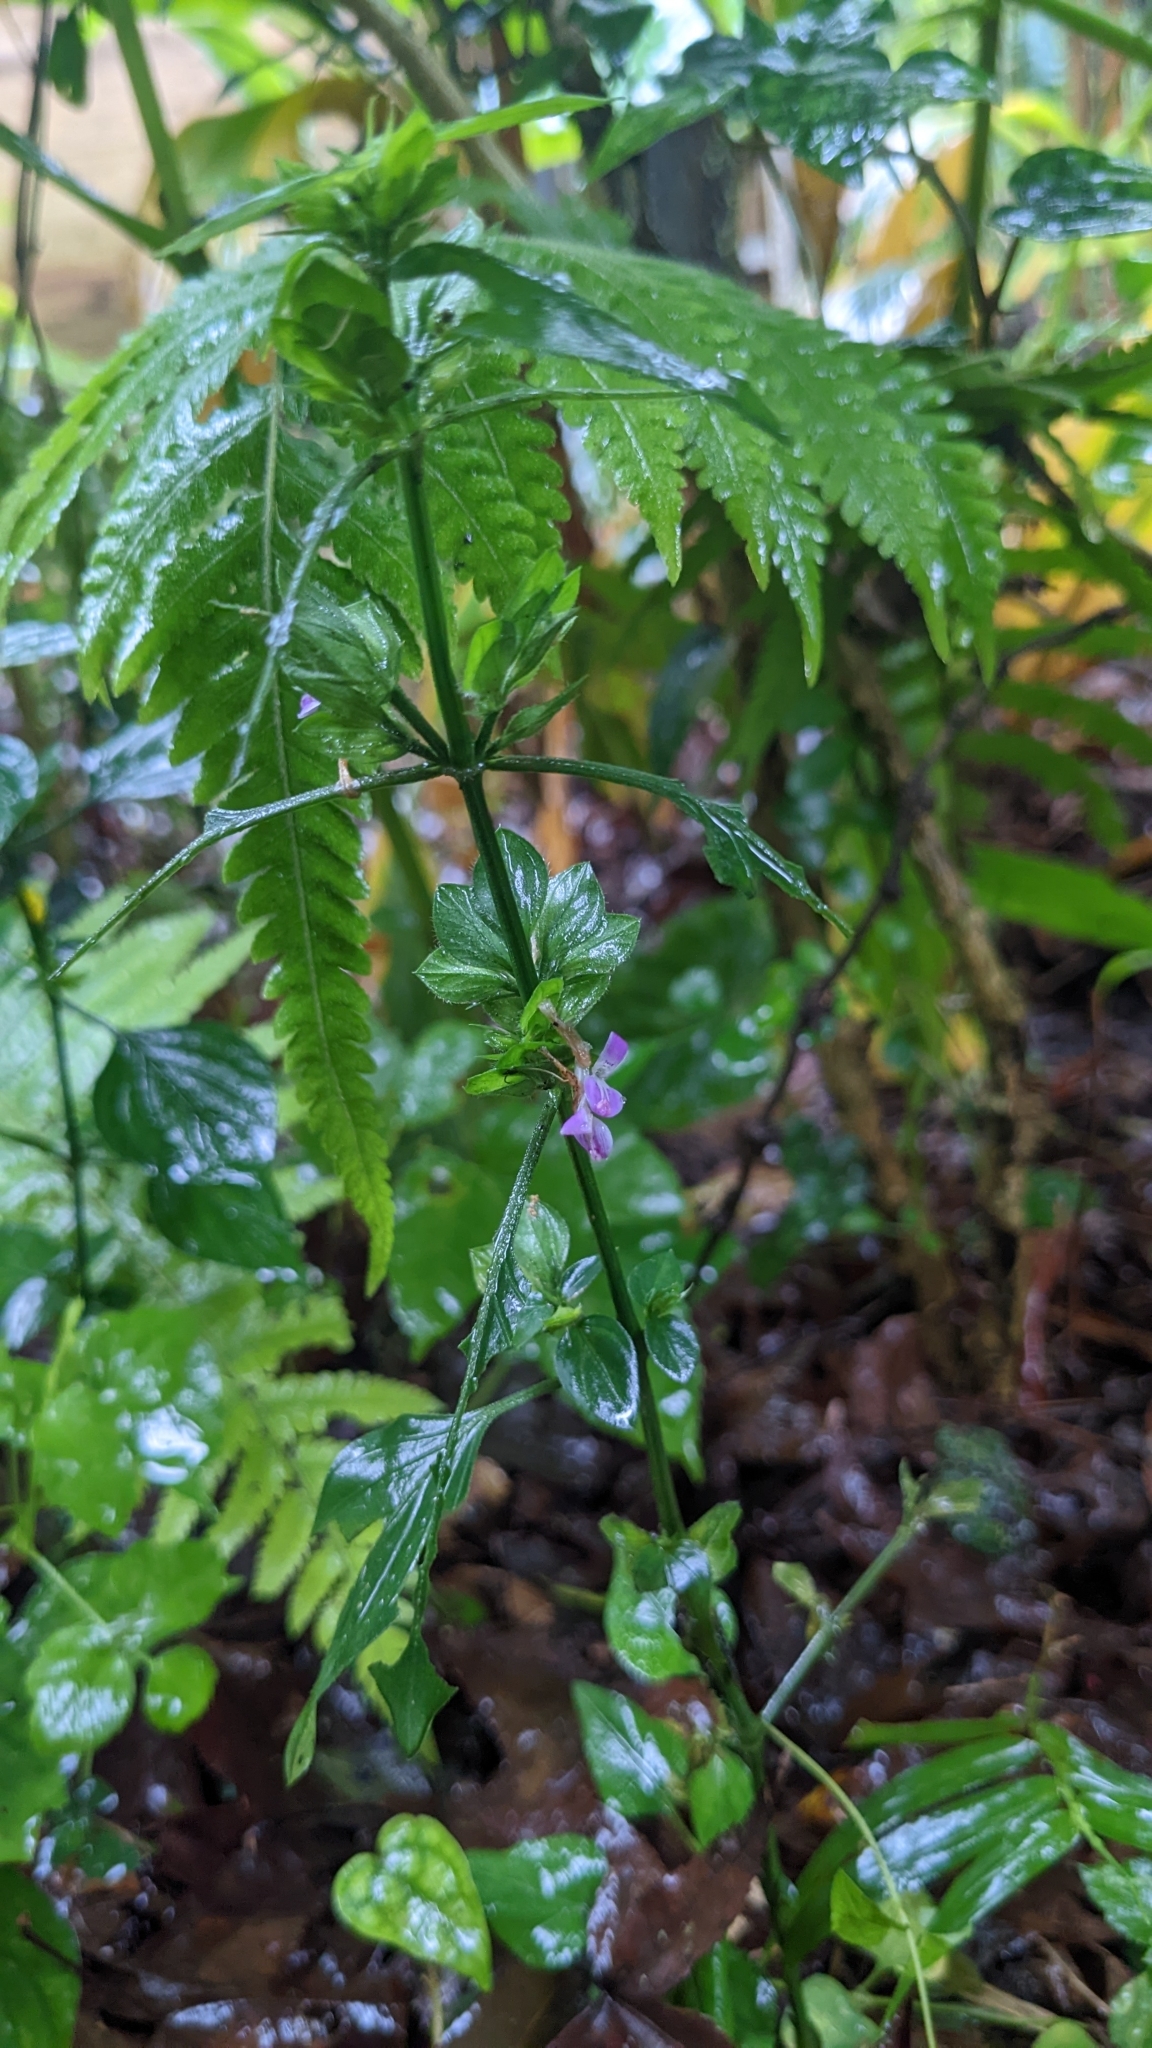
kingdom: Plantae
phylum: Tracheophyta
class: Magnoliopsida
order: Lamiales
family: Acanthaceae
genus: Dicliptera
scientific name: Dicliptera chinensis
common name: Chinese foldwing
